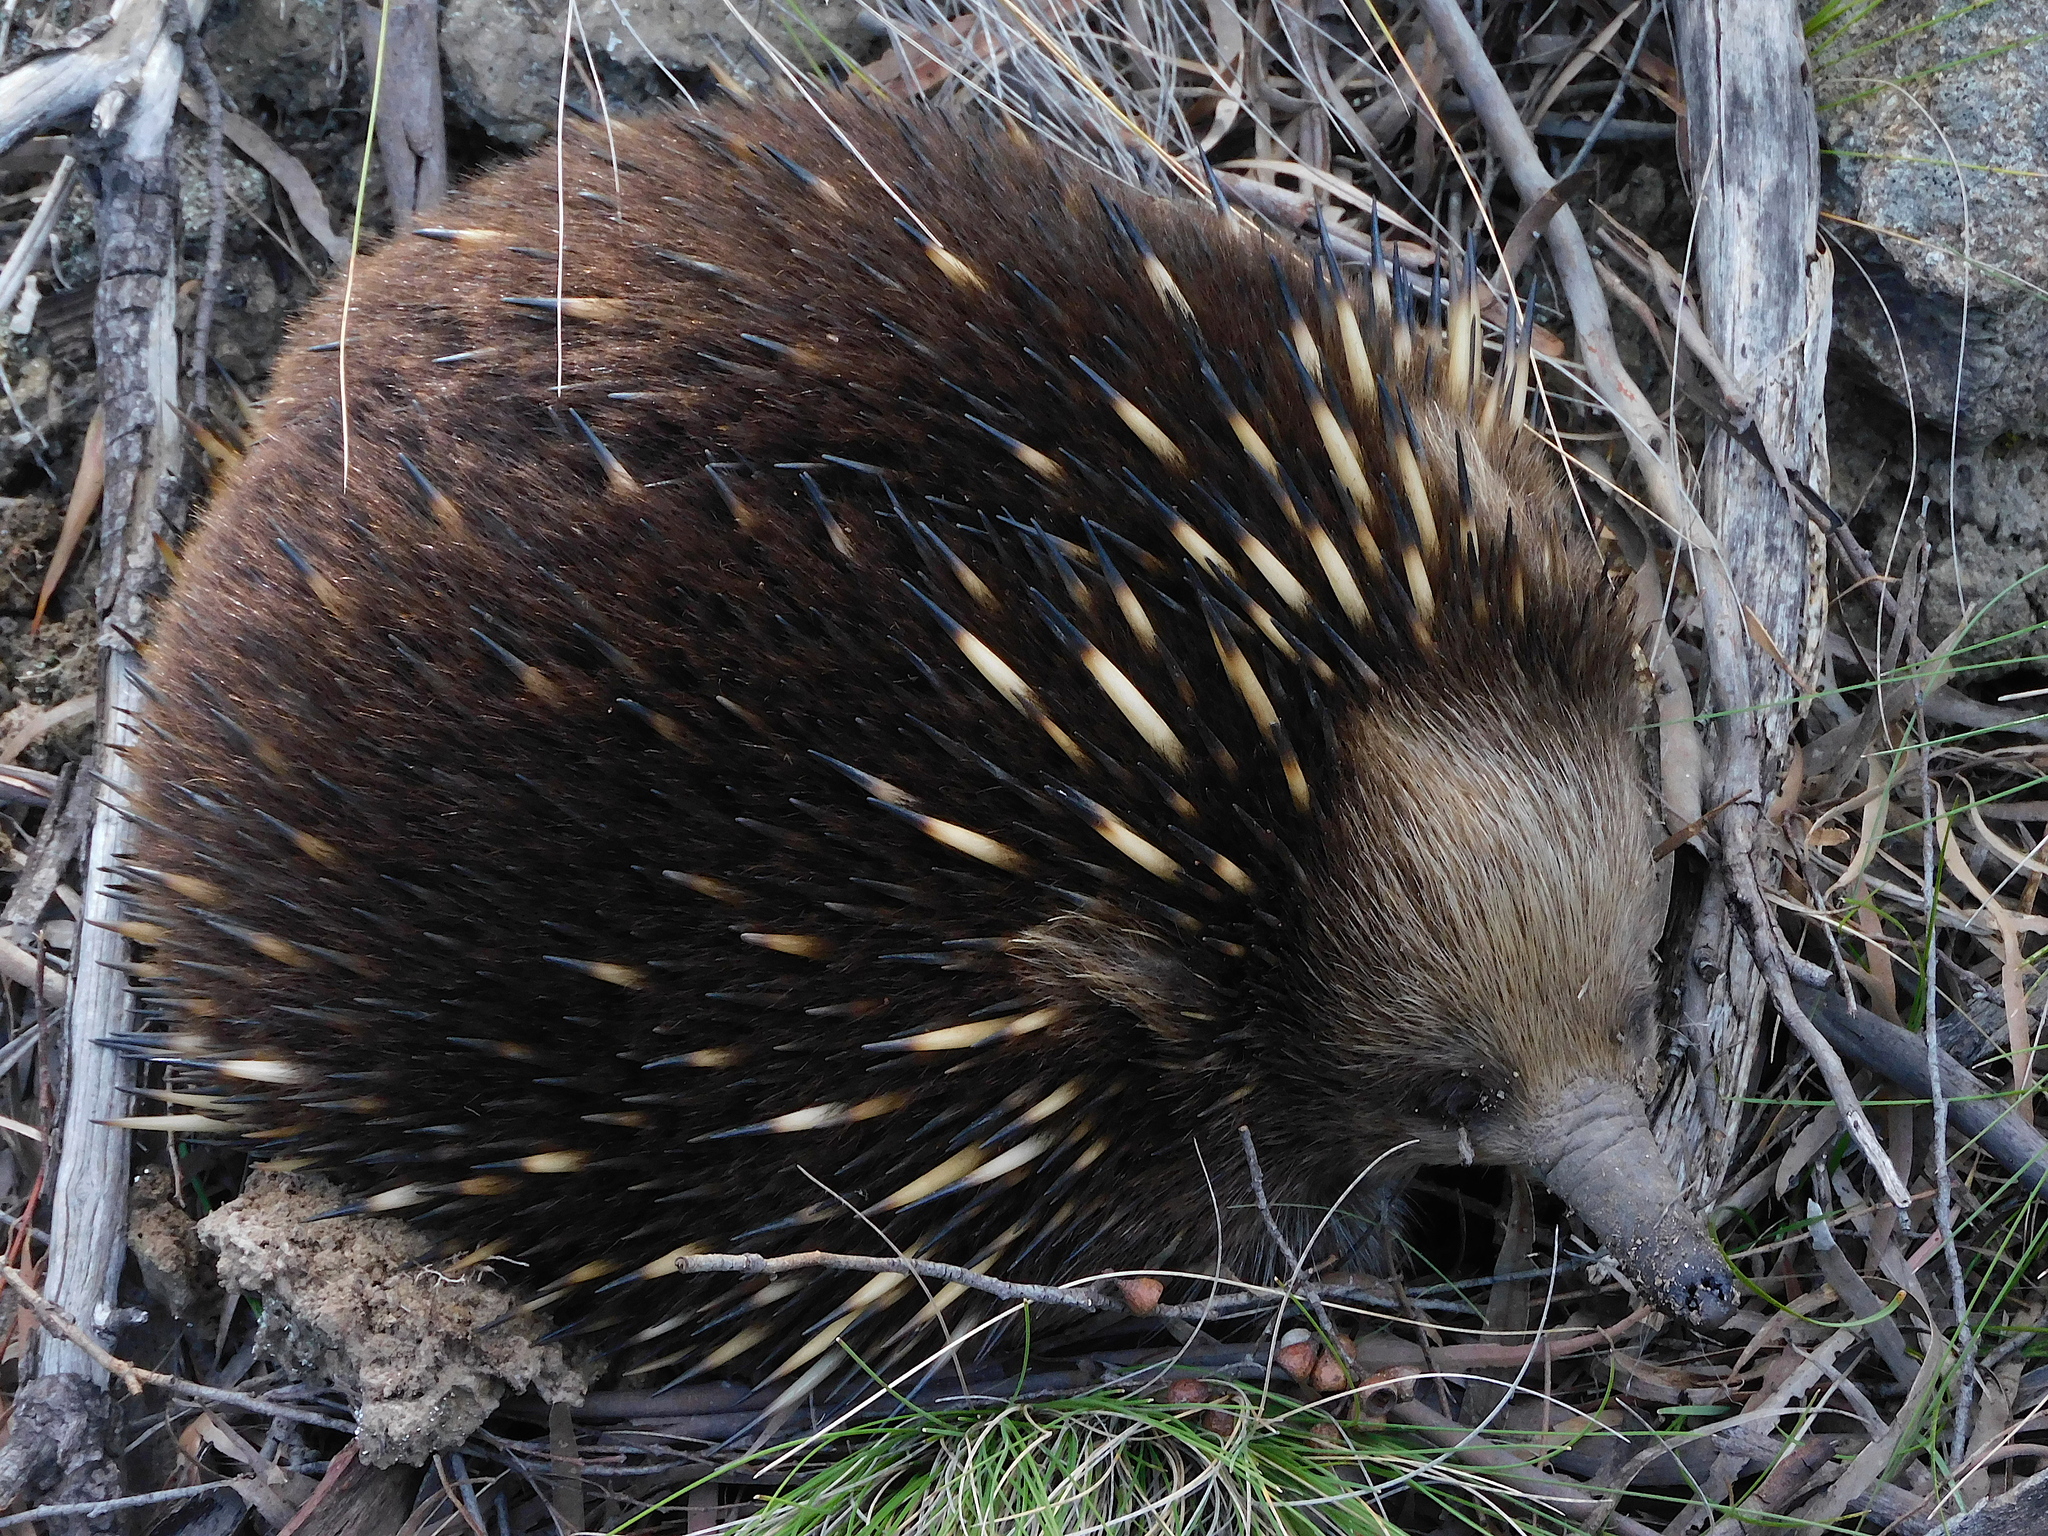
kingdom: Animalia
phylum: Chordata
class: Mammalia
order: Monotremata
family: Tachyglossidae
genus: Tachyglossus
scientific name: Tachyglossus aculeatus
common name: Short-beaked echidna
